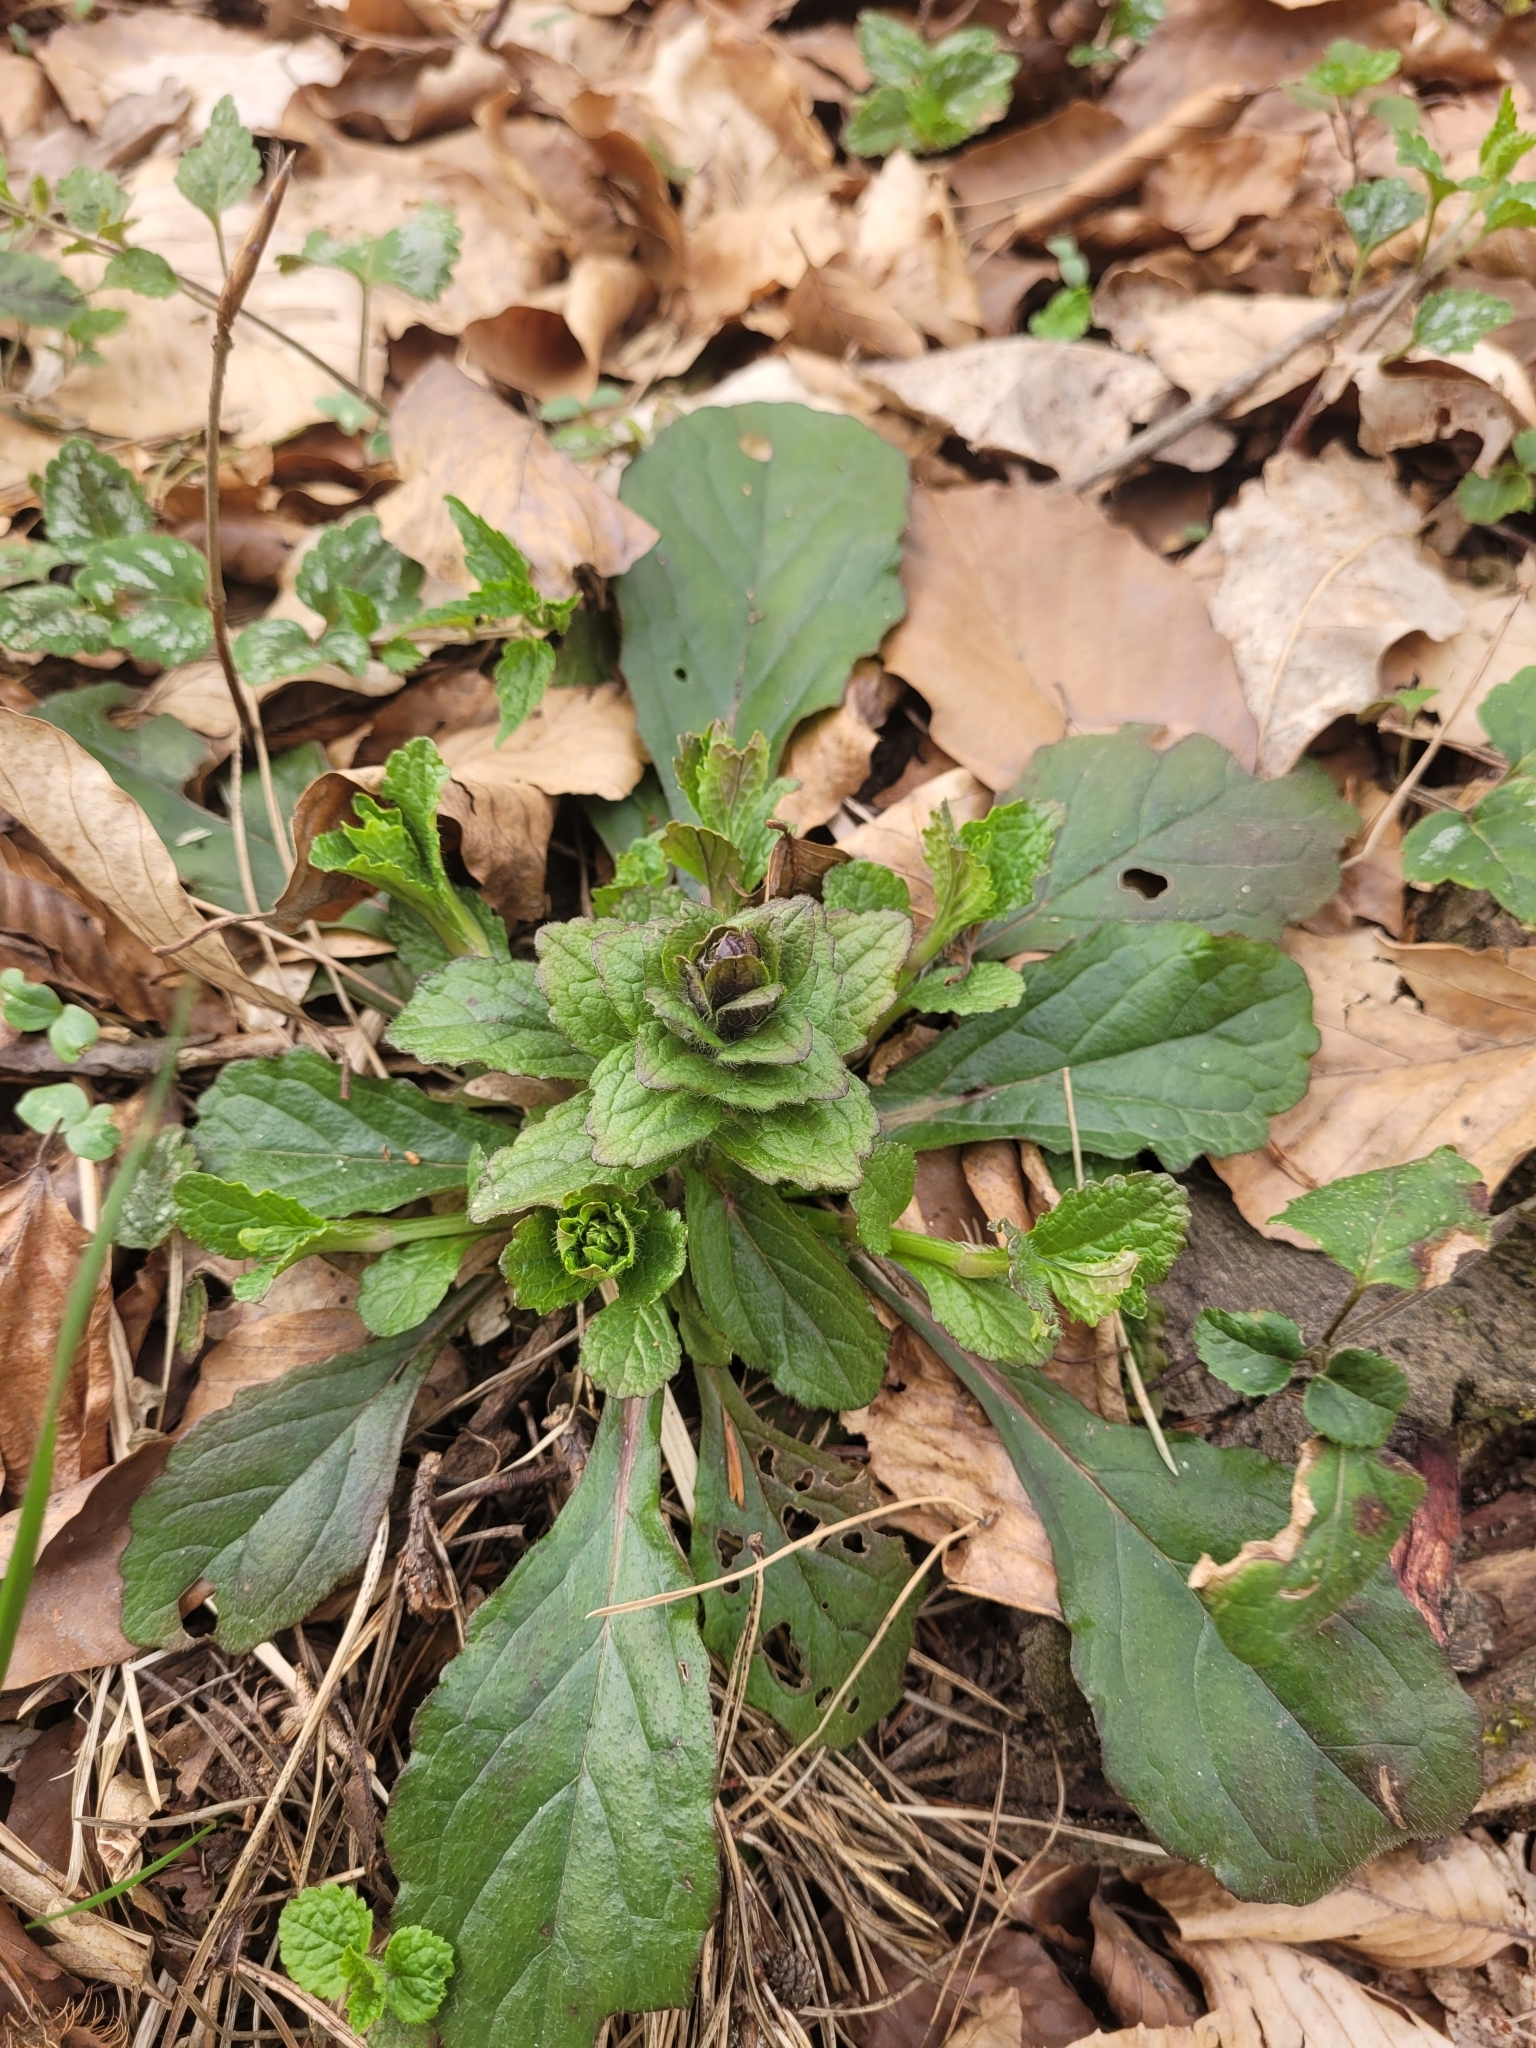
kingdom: Plantae
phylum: Tracheophyta
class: Magnoliopsida
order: Lamiales
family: Lamiaceae
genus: Ajuga
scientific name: Ajuga reptans
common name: Bugle
